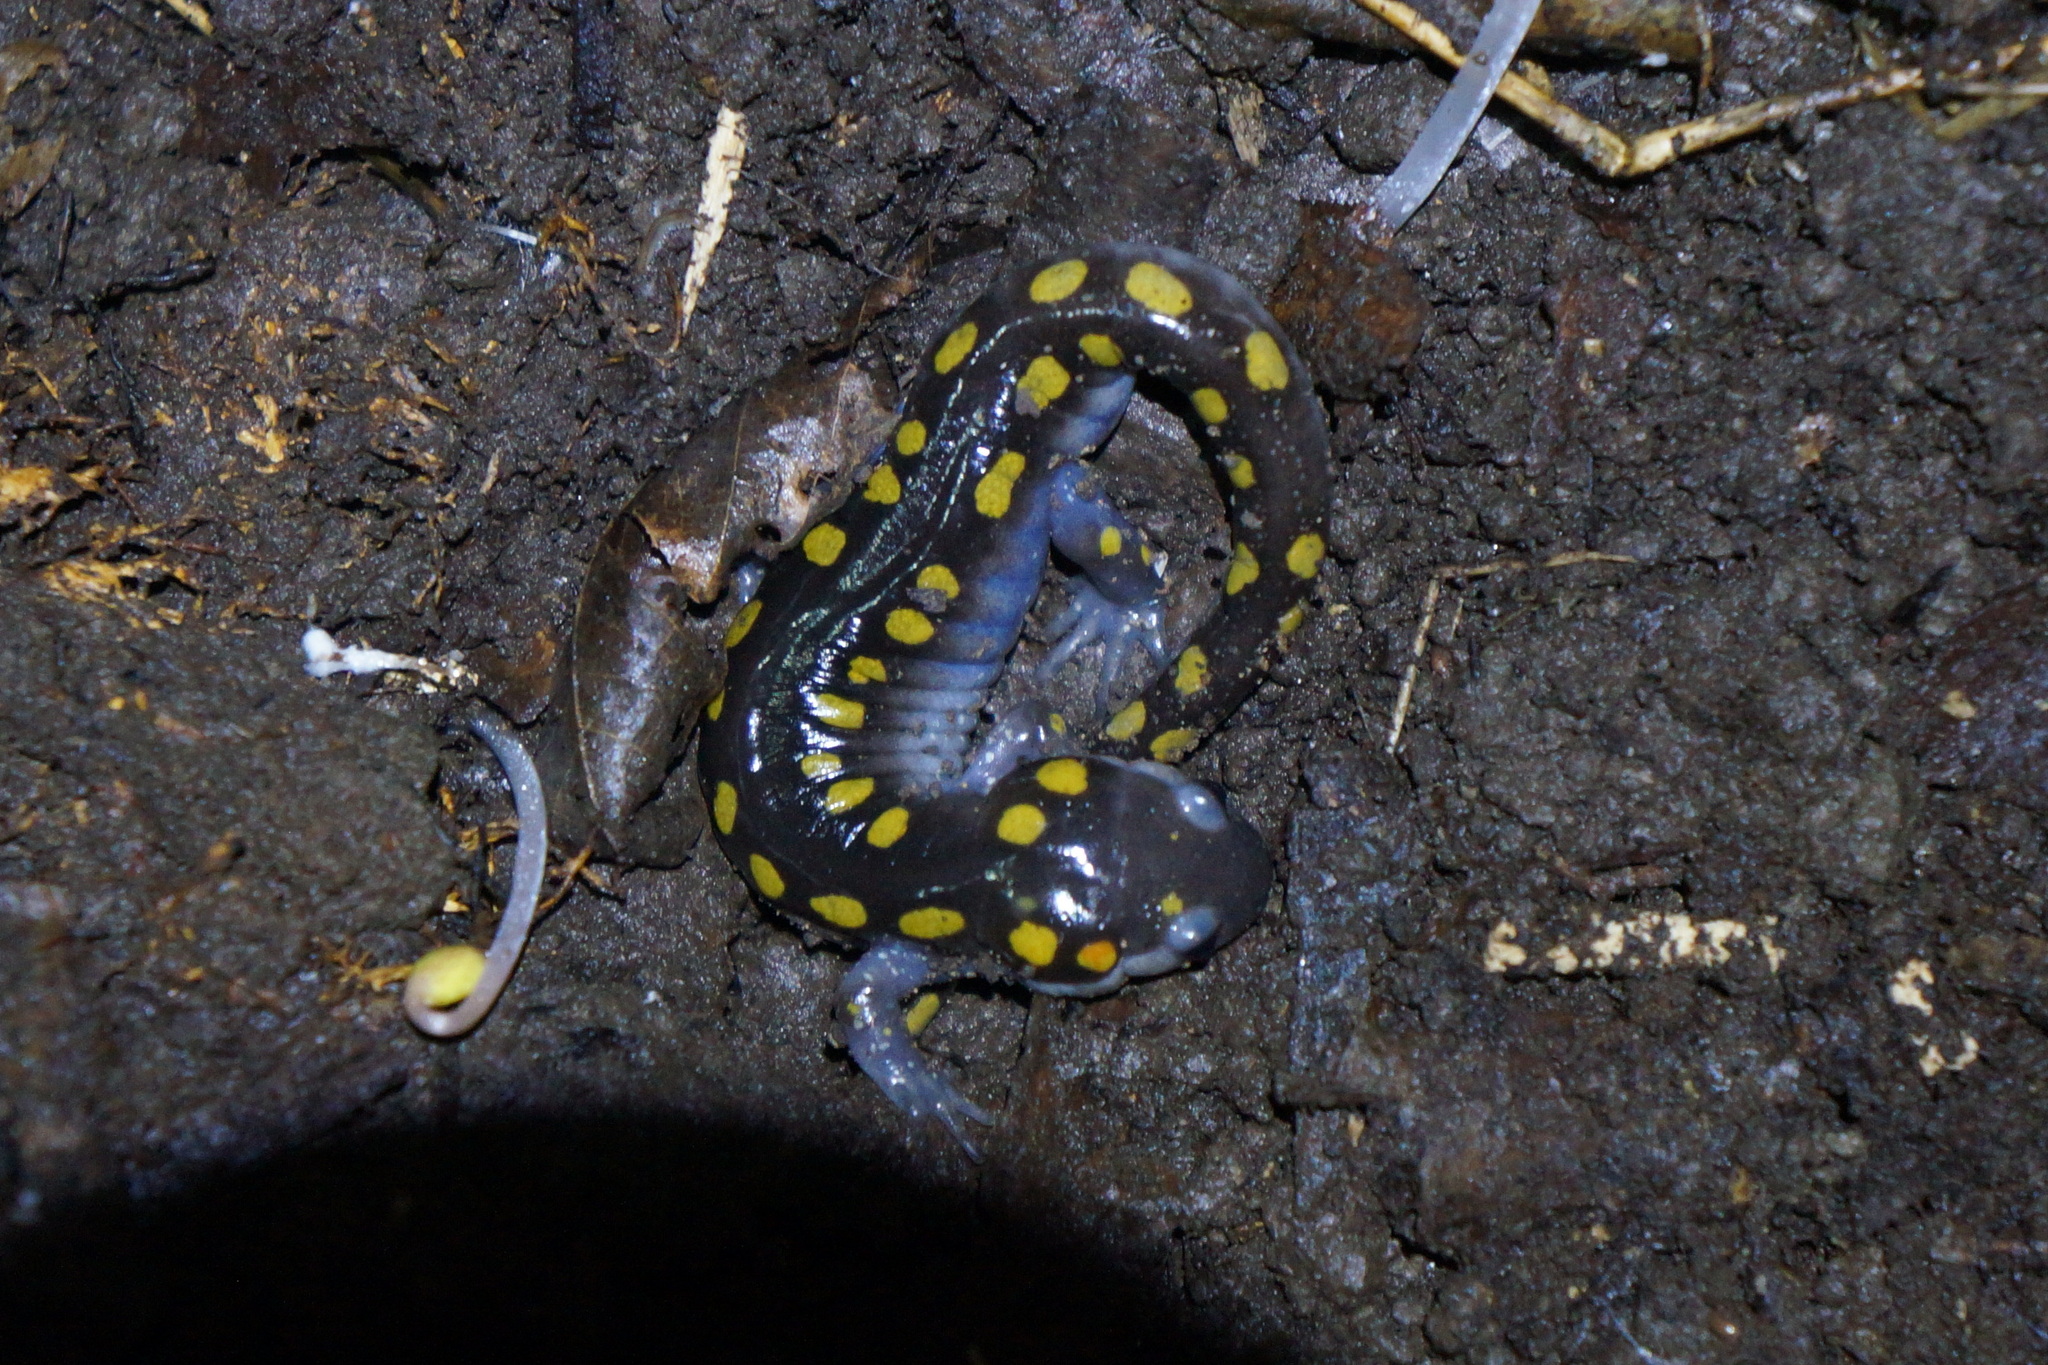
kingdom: Animalia
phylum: Chordata
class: Amphibia
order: Caudata
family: Ambystomatidae
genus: Ambystoma
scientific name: Ambystoma maculatum
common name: Spotted salamander
